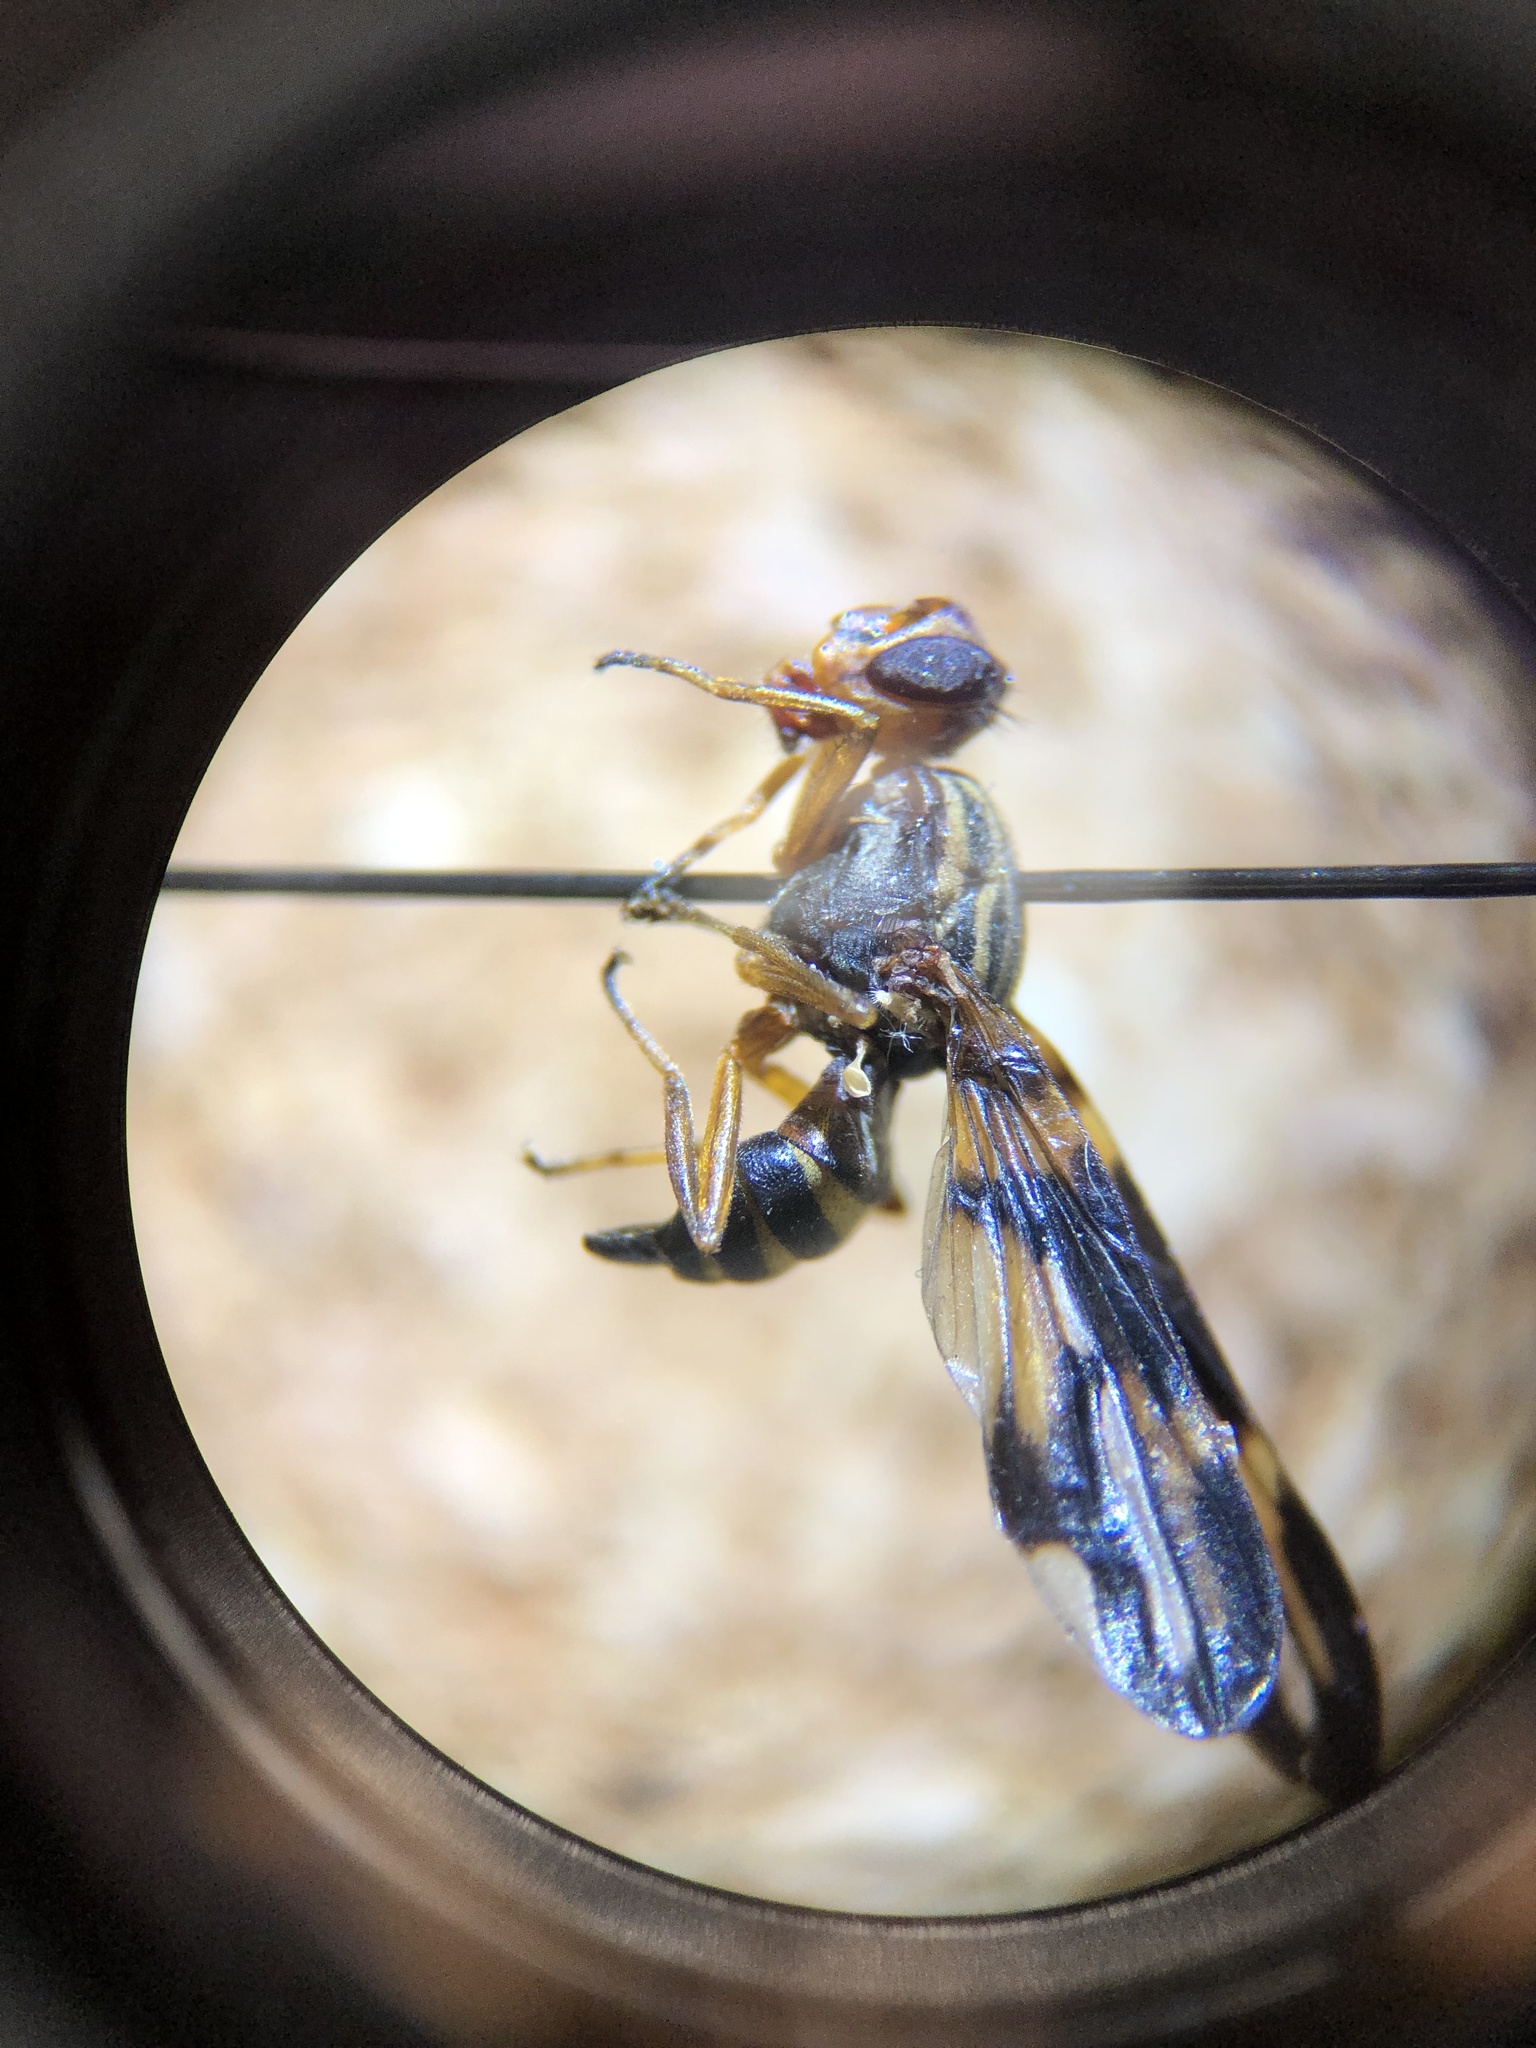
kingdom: Animalia
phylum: Arthropoda
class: Insecta
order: Diptera
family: Ulidiidae
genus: Idana
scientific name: Idana marginata
